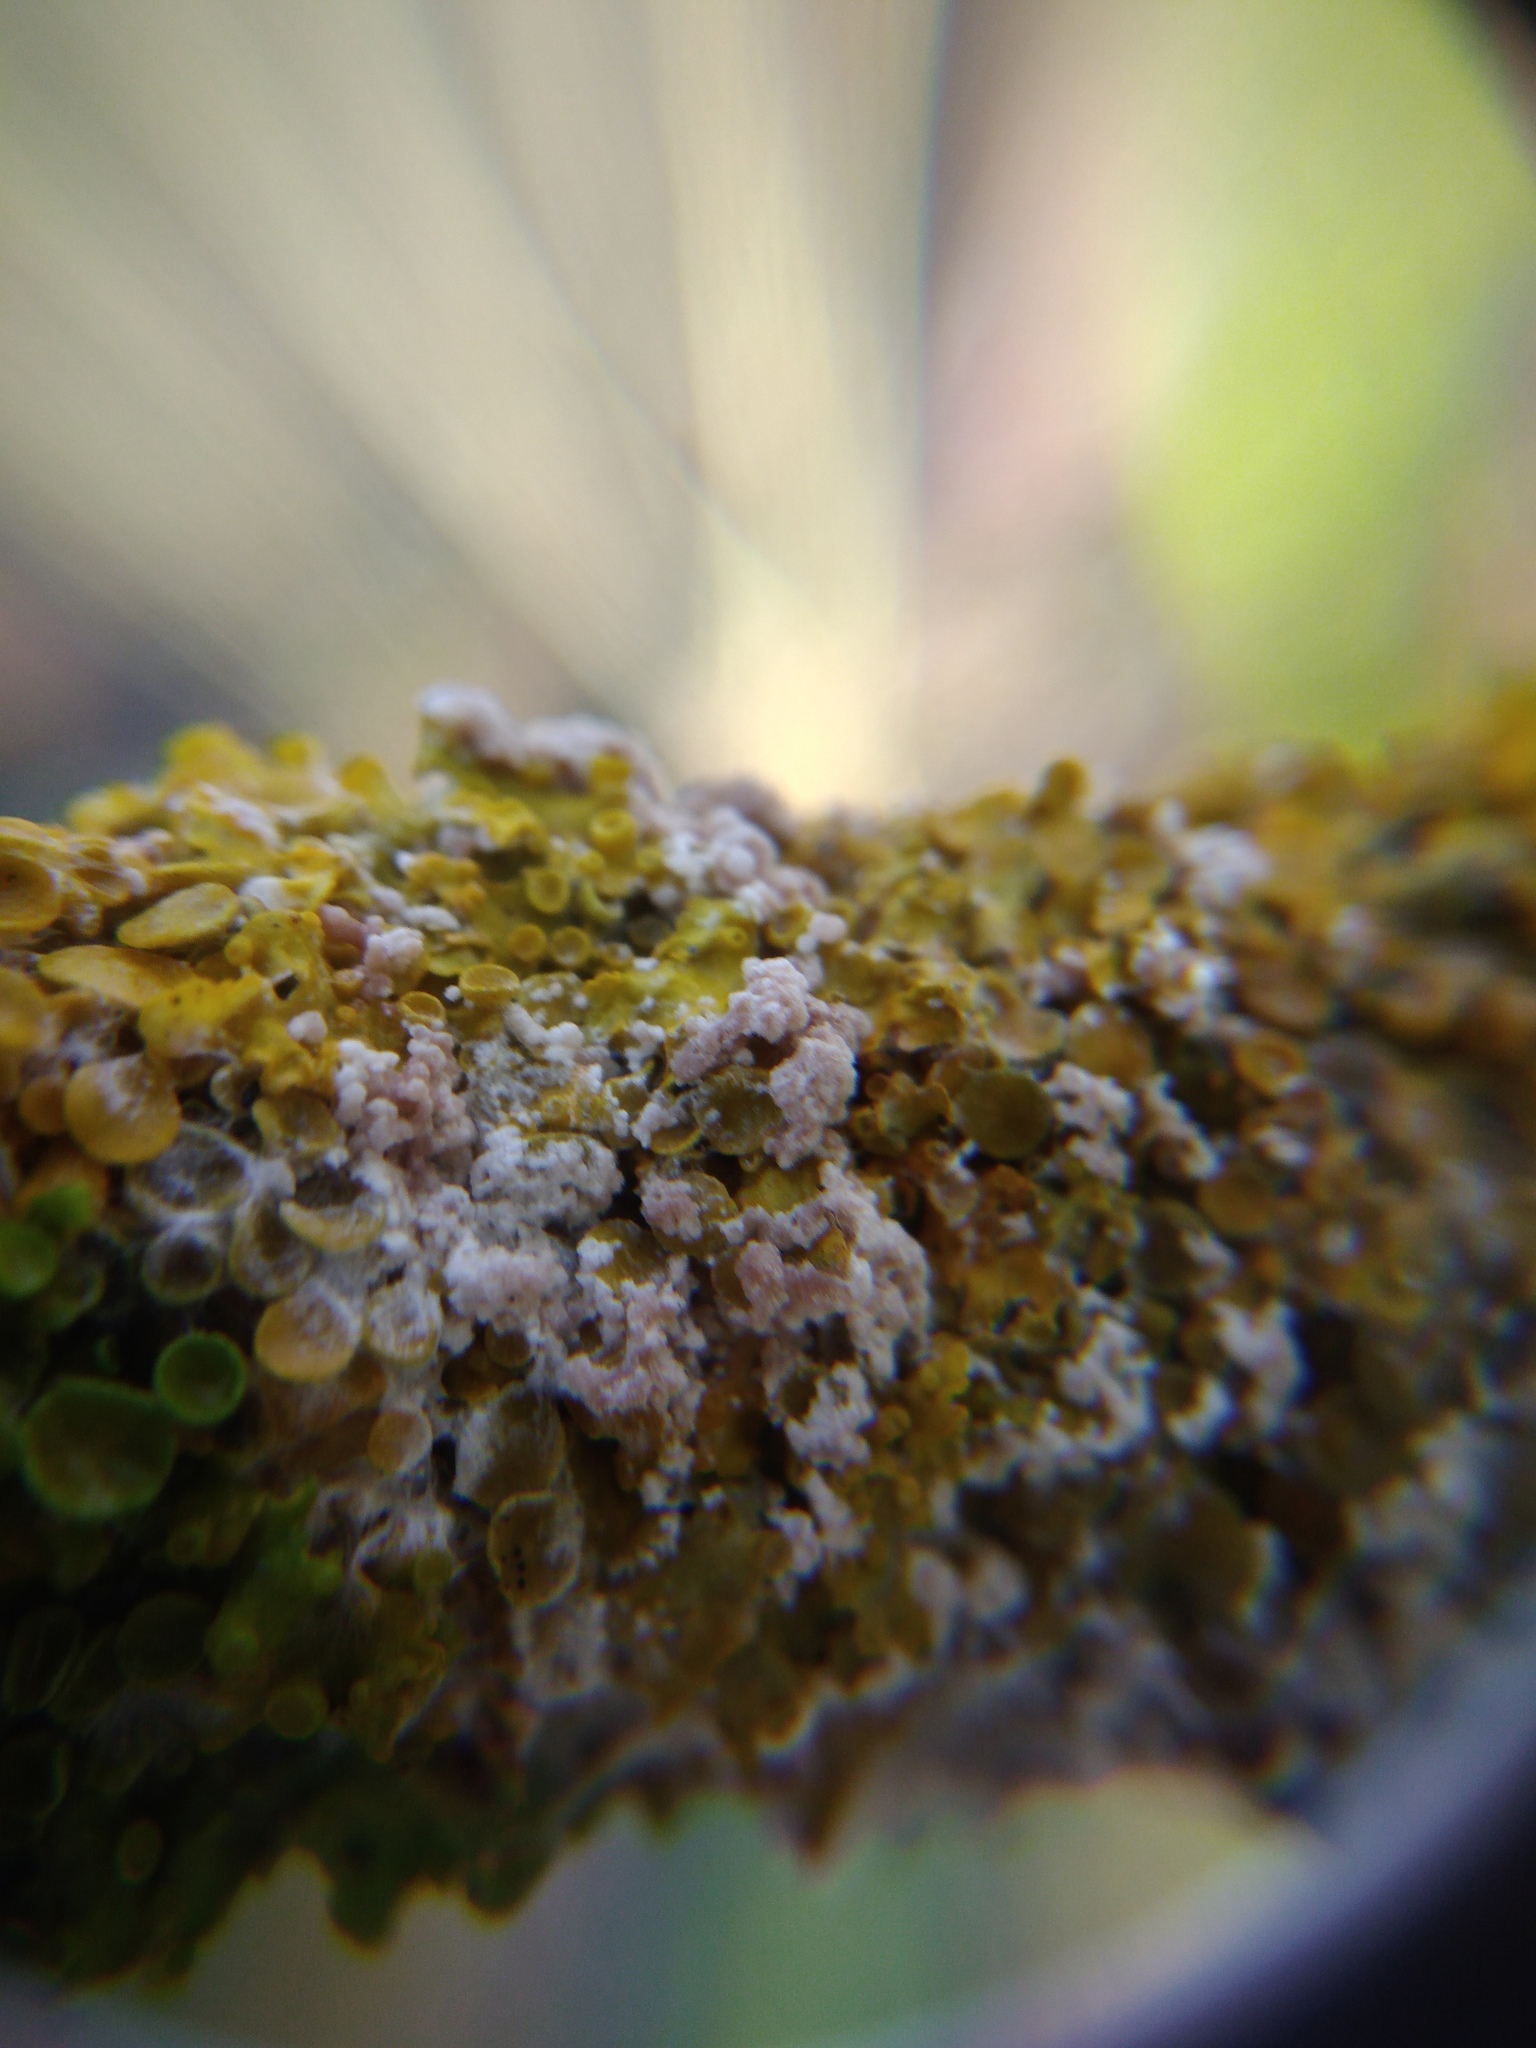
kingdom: Fungi
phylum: Basidiomycota
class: Agaricomycetes
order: Atheliales
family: Atheliaceae
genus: Athelia
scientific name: Athelia arachnoidea
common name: Candelabra duster
